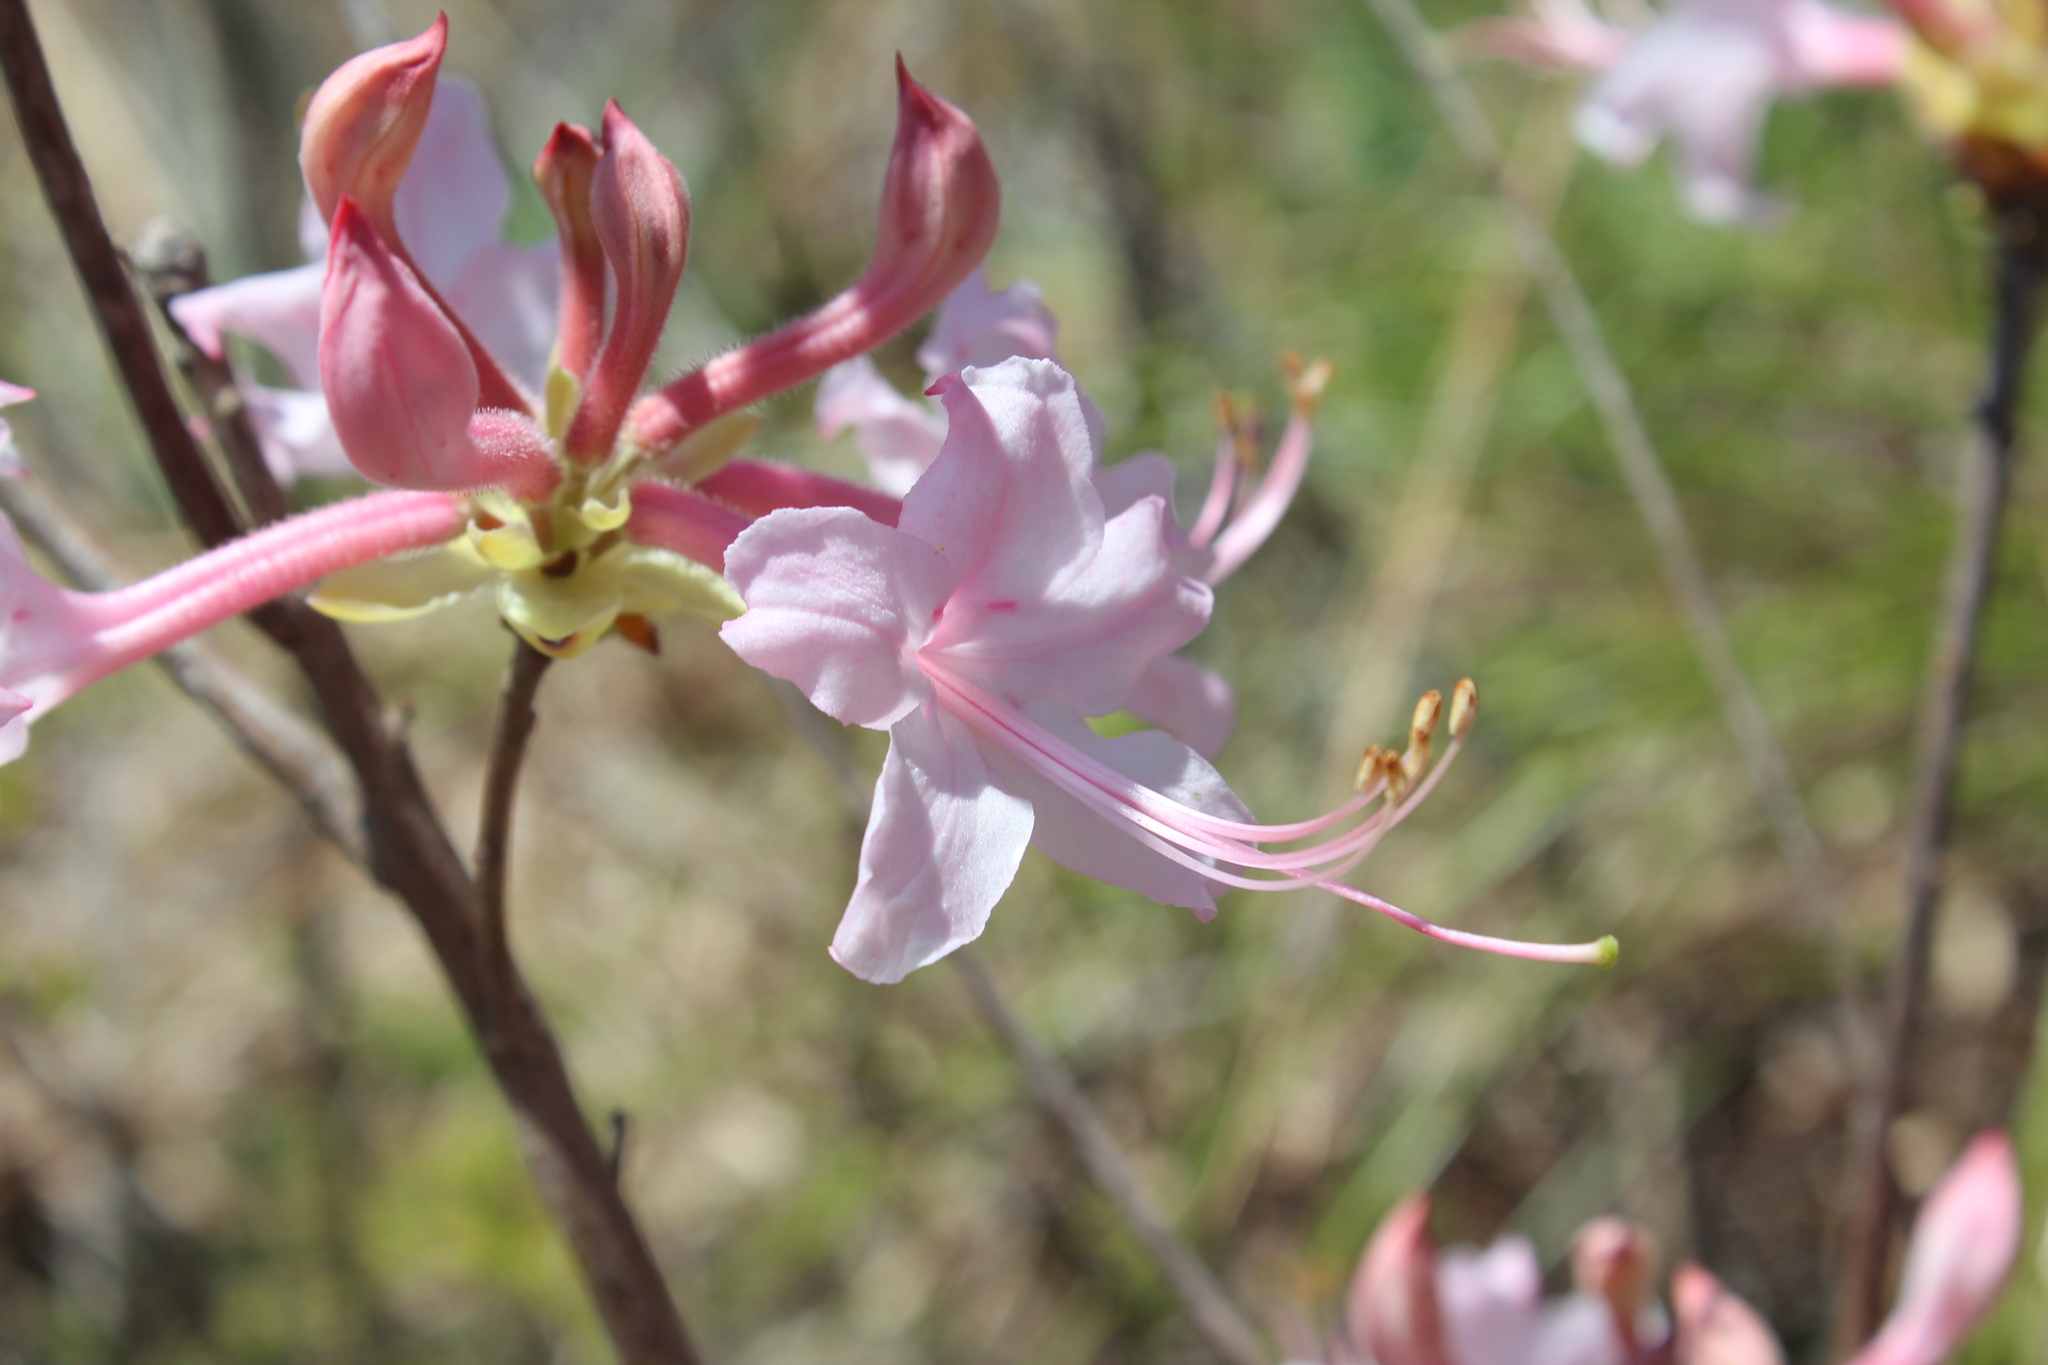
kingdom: Plantae
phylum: Tracheophyta
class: Magnoliopsida
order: Ericales
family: Ericaceae
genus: Rhododendron
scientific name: Rhododendron canescens
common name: Mountain azalea
